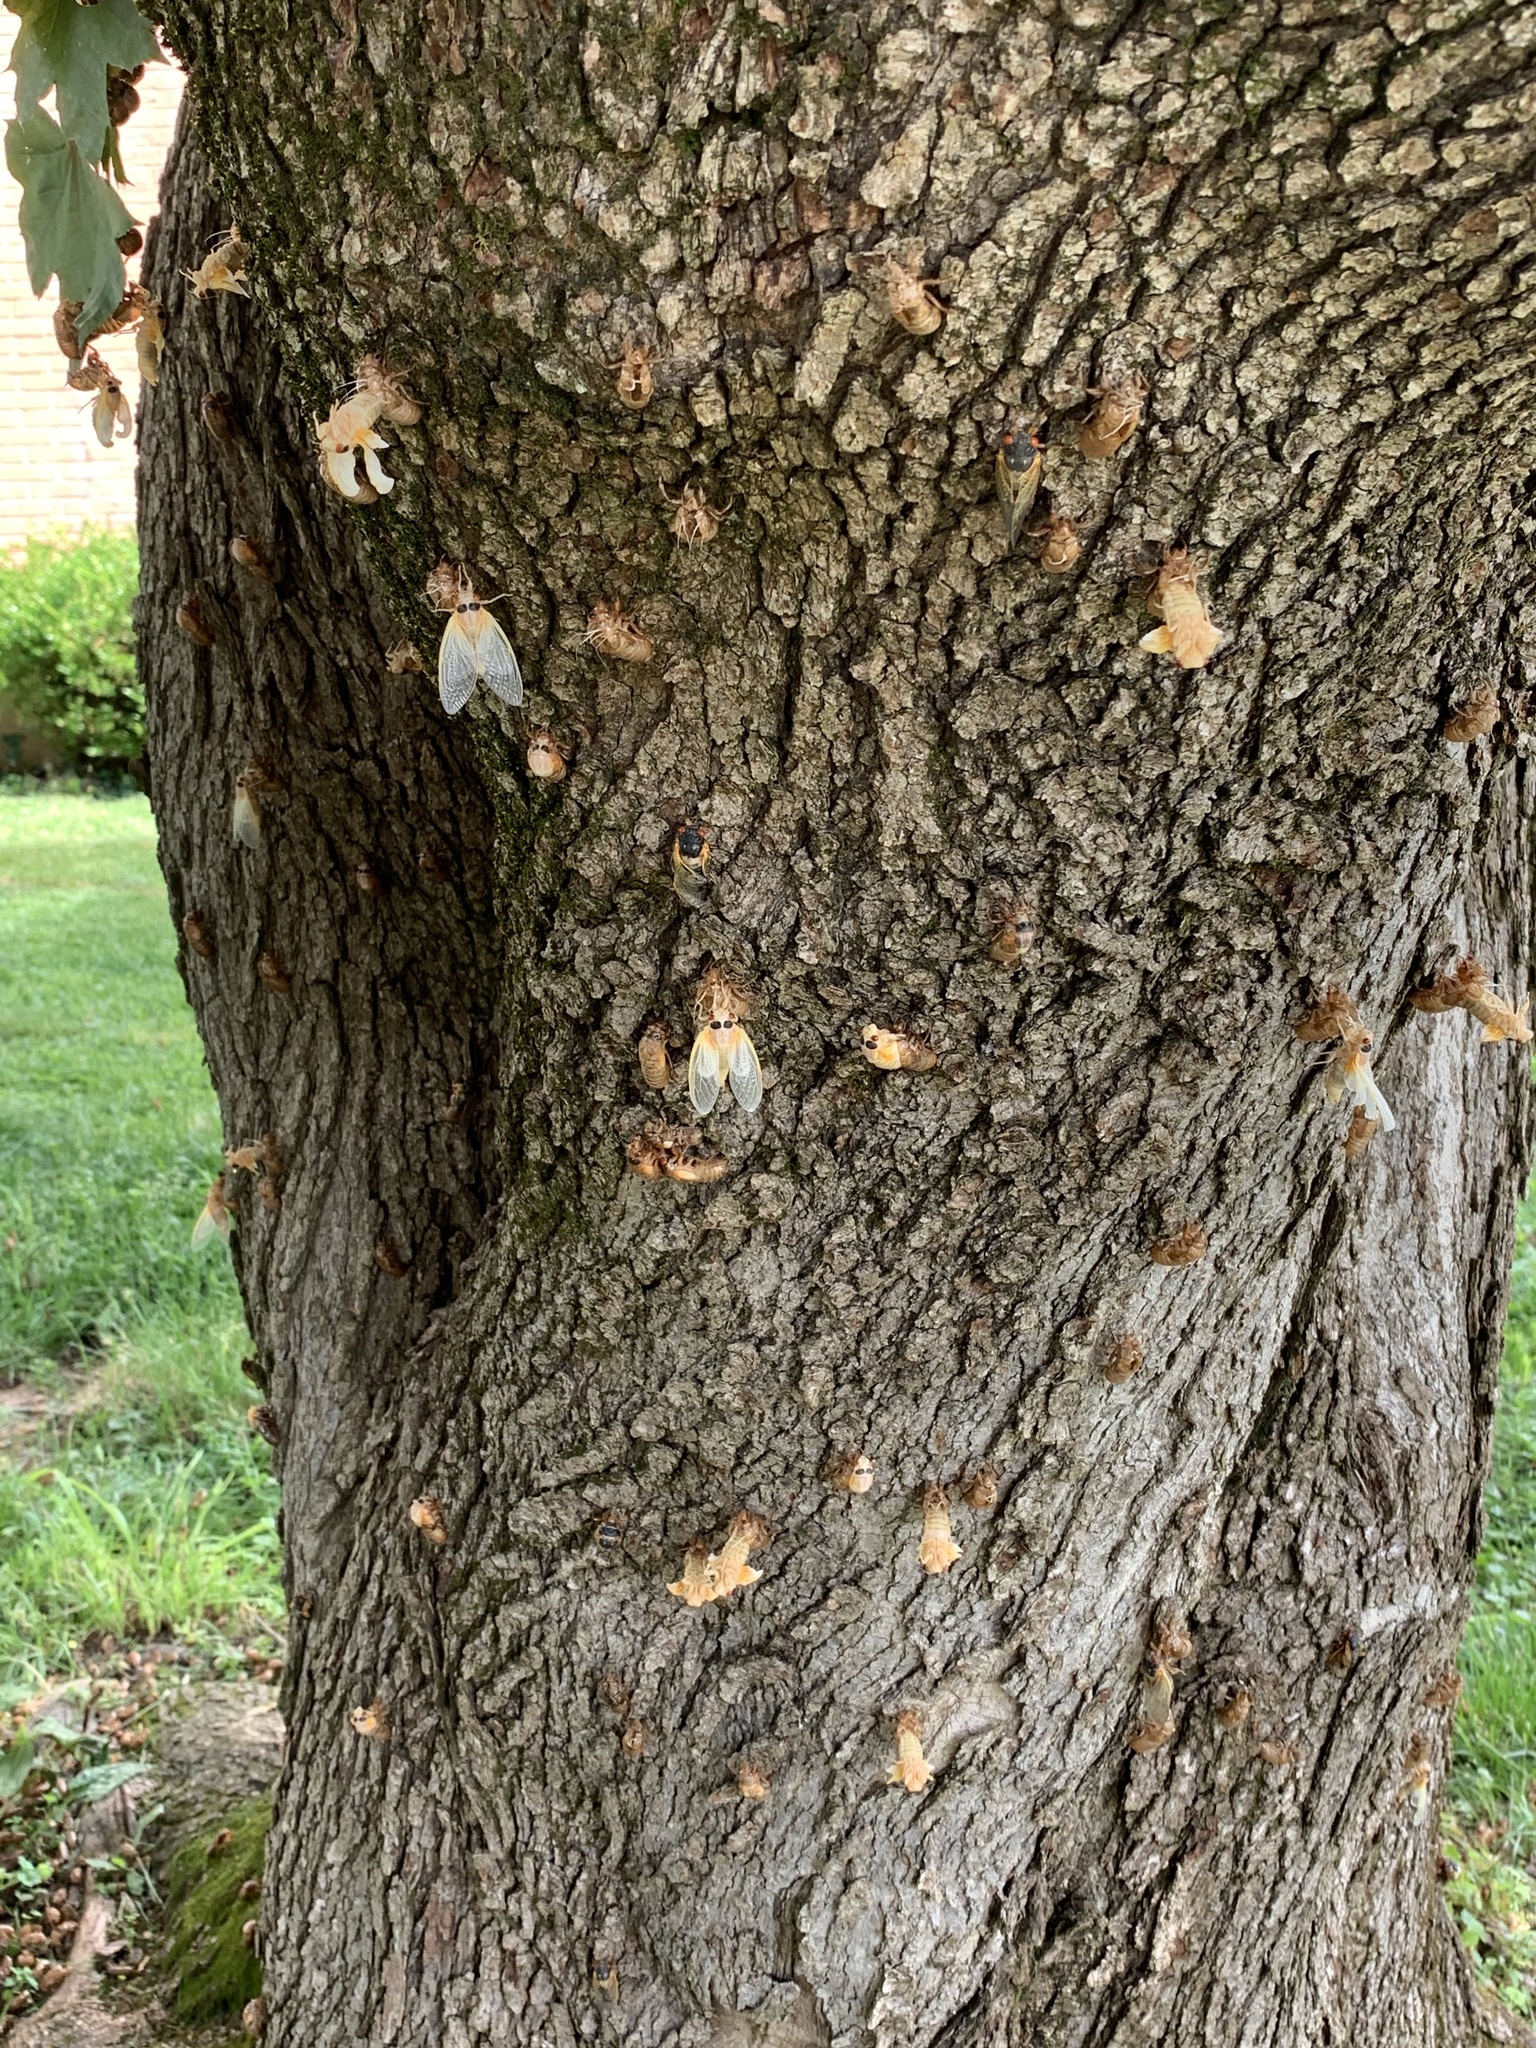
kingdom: Animalia
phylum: Arthropoda
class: Insecta
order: Hemiptera
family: Cicadidae
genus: Magicicada
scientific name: Magicicada
